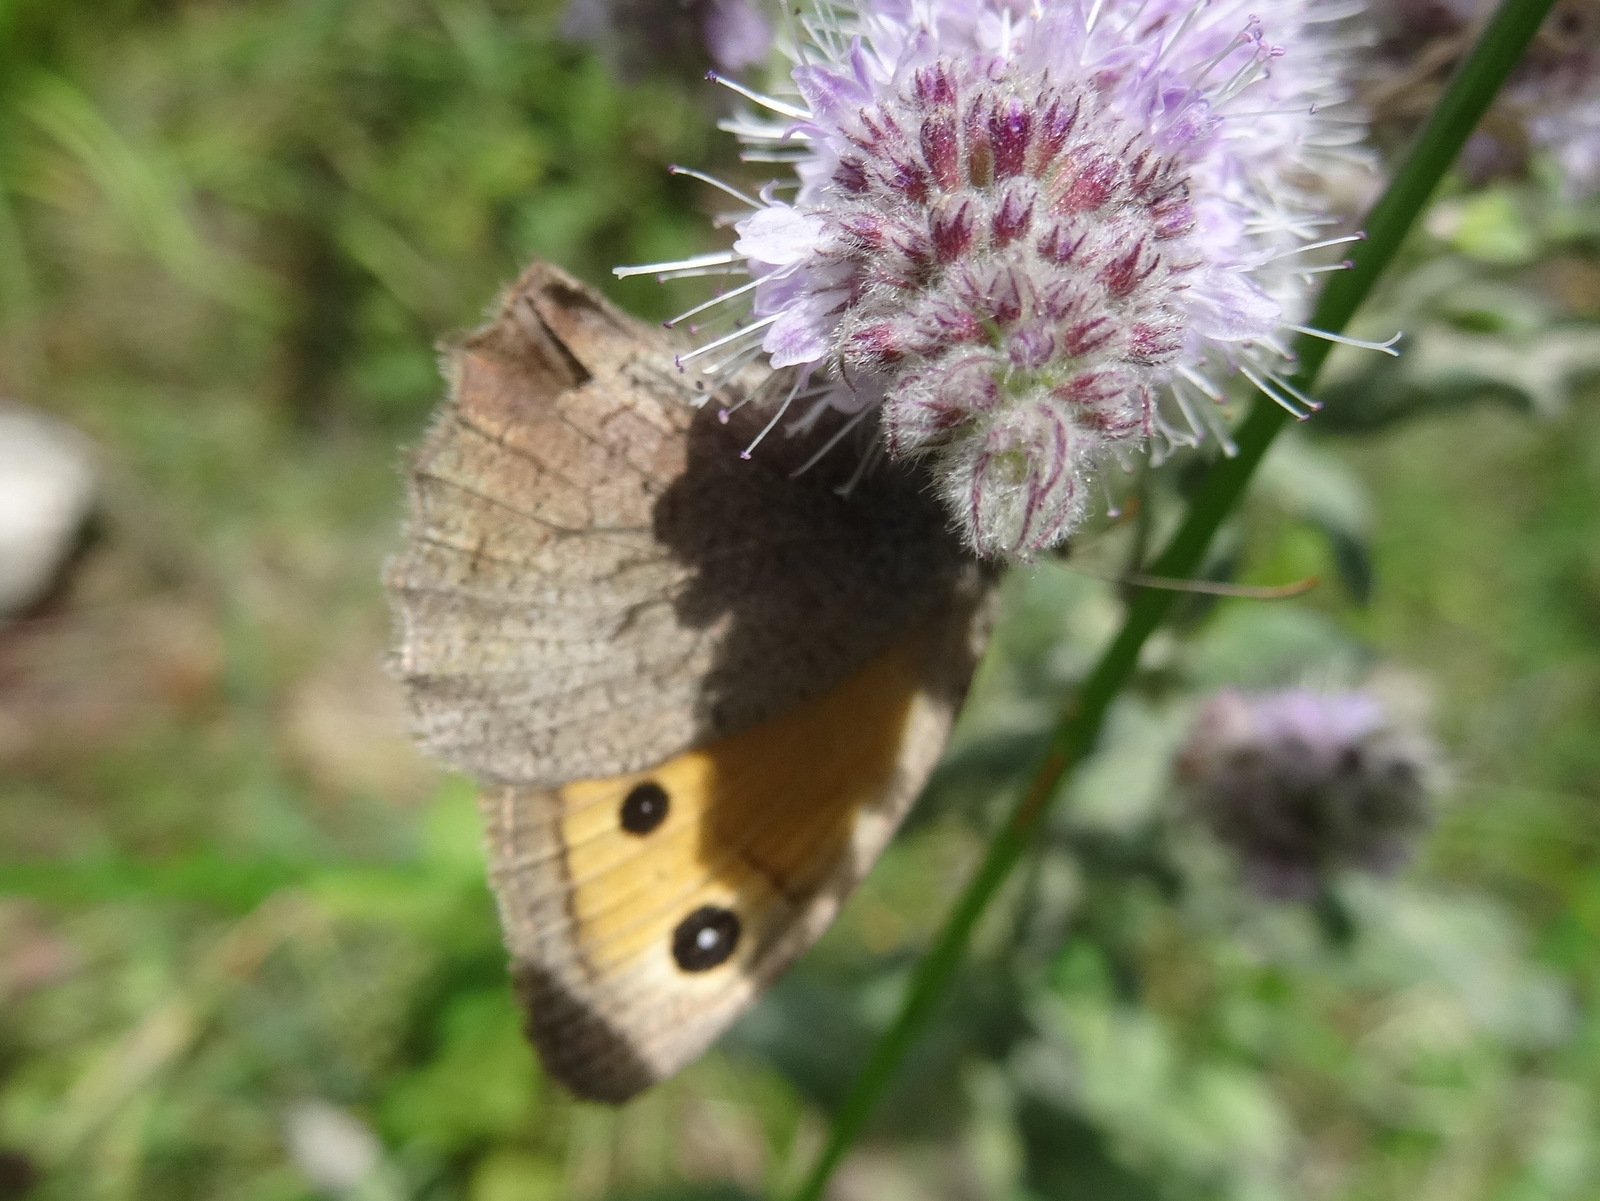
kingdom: Animalia
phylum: Arthropoda
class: Insecta
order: Lepidoptera
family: Nymphalidae
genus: Hyponephele
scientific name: Hyponephele lycaon
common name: Dusky meadow brown
